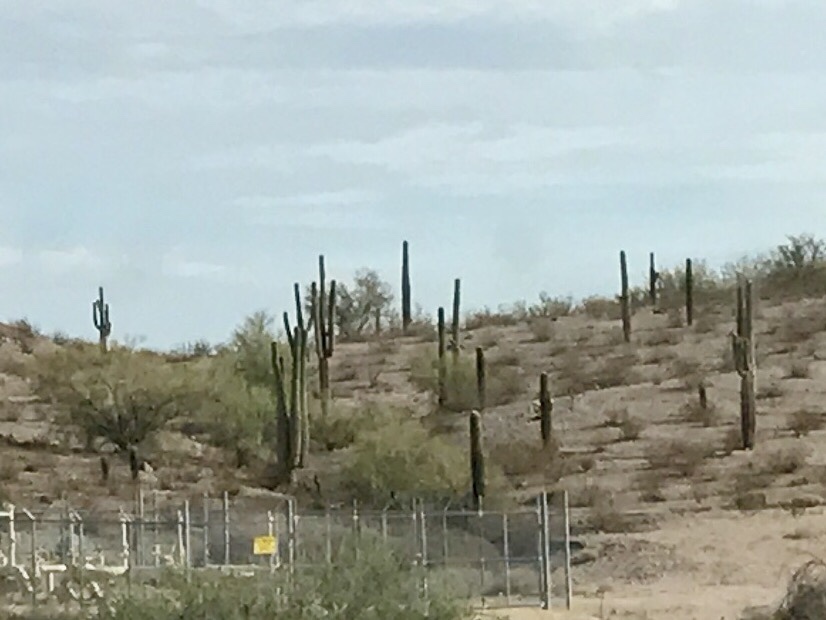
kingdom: Plantae
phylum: Tracheophyta
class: Magnoliopsida
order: Caryophyllales
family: Cactaceae
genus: Carnegiea
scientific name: Carnegiea gigantea
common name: Saguaro
